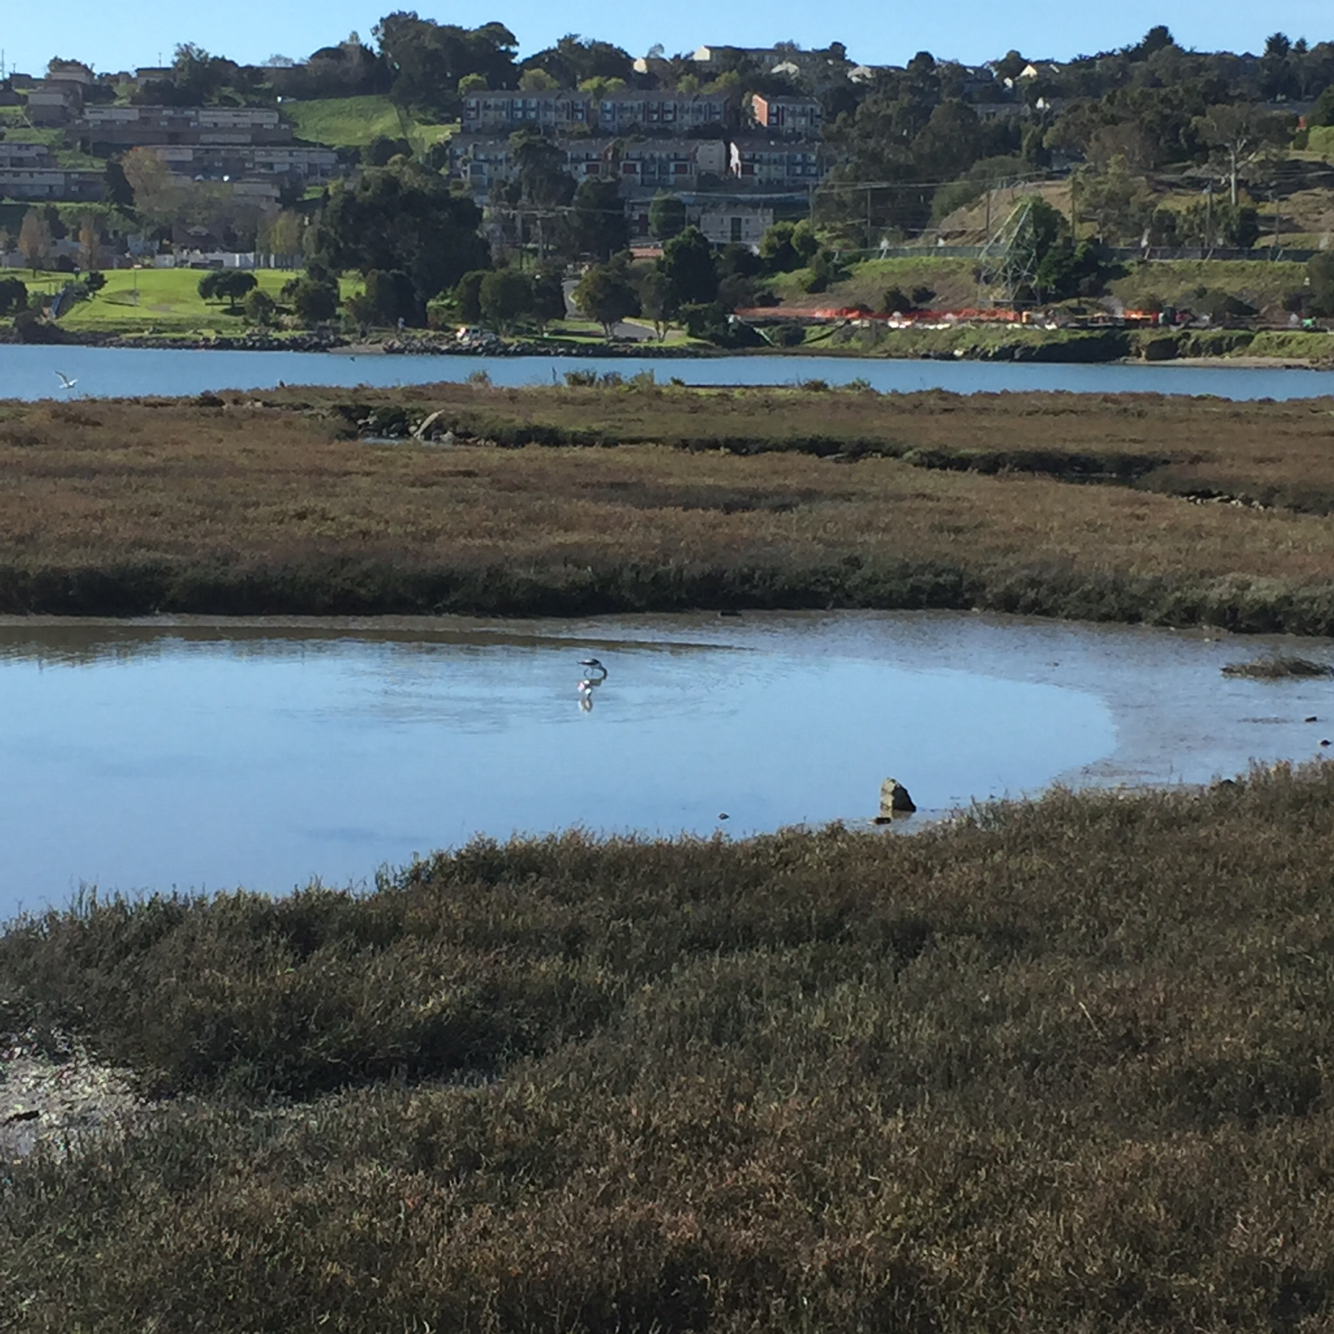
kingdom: Animalia
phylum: Chordata
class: Aves
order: Charadriiformes
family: Recurvirostridae
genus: Recurvirostra
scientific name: Recurvirostra americana
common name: American avocet
